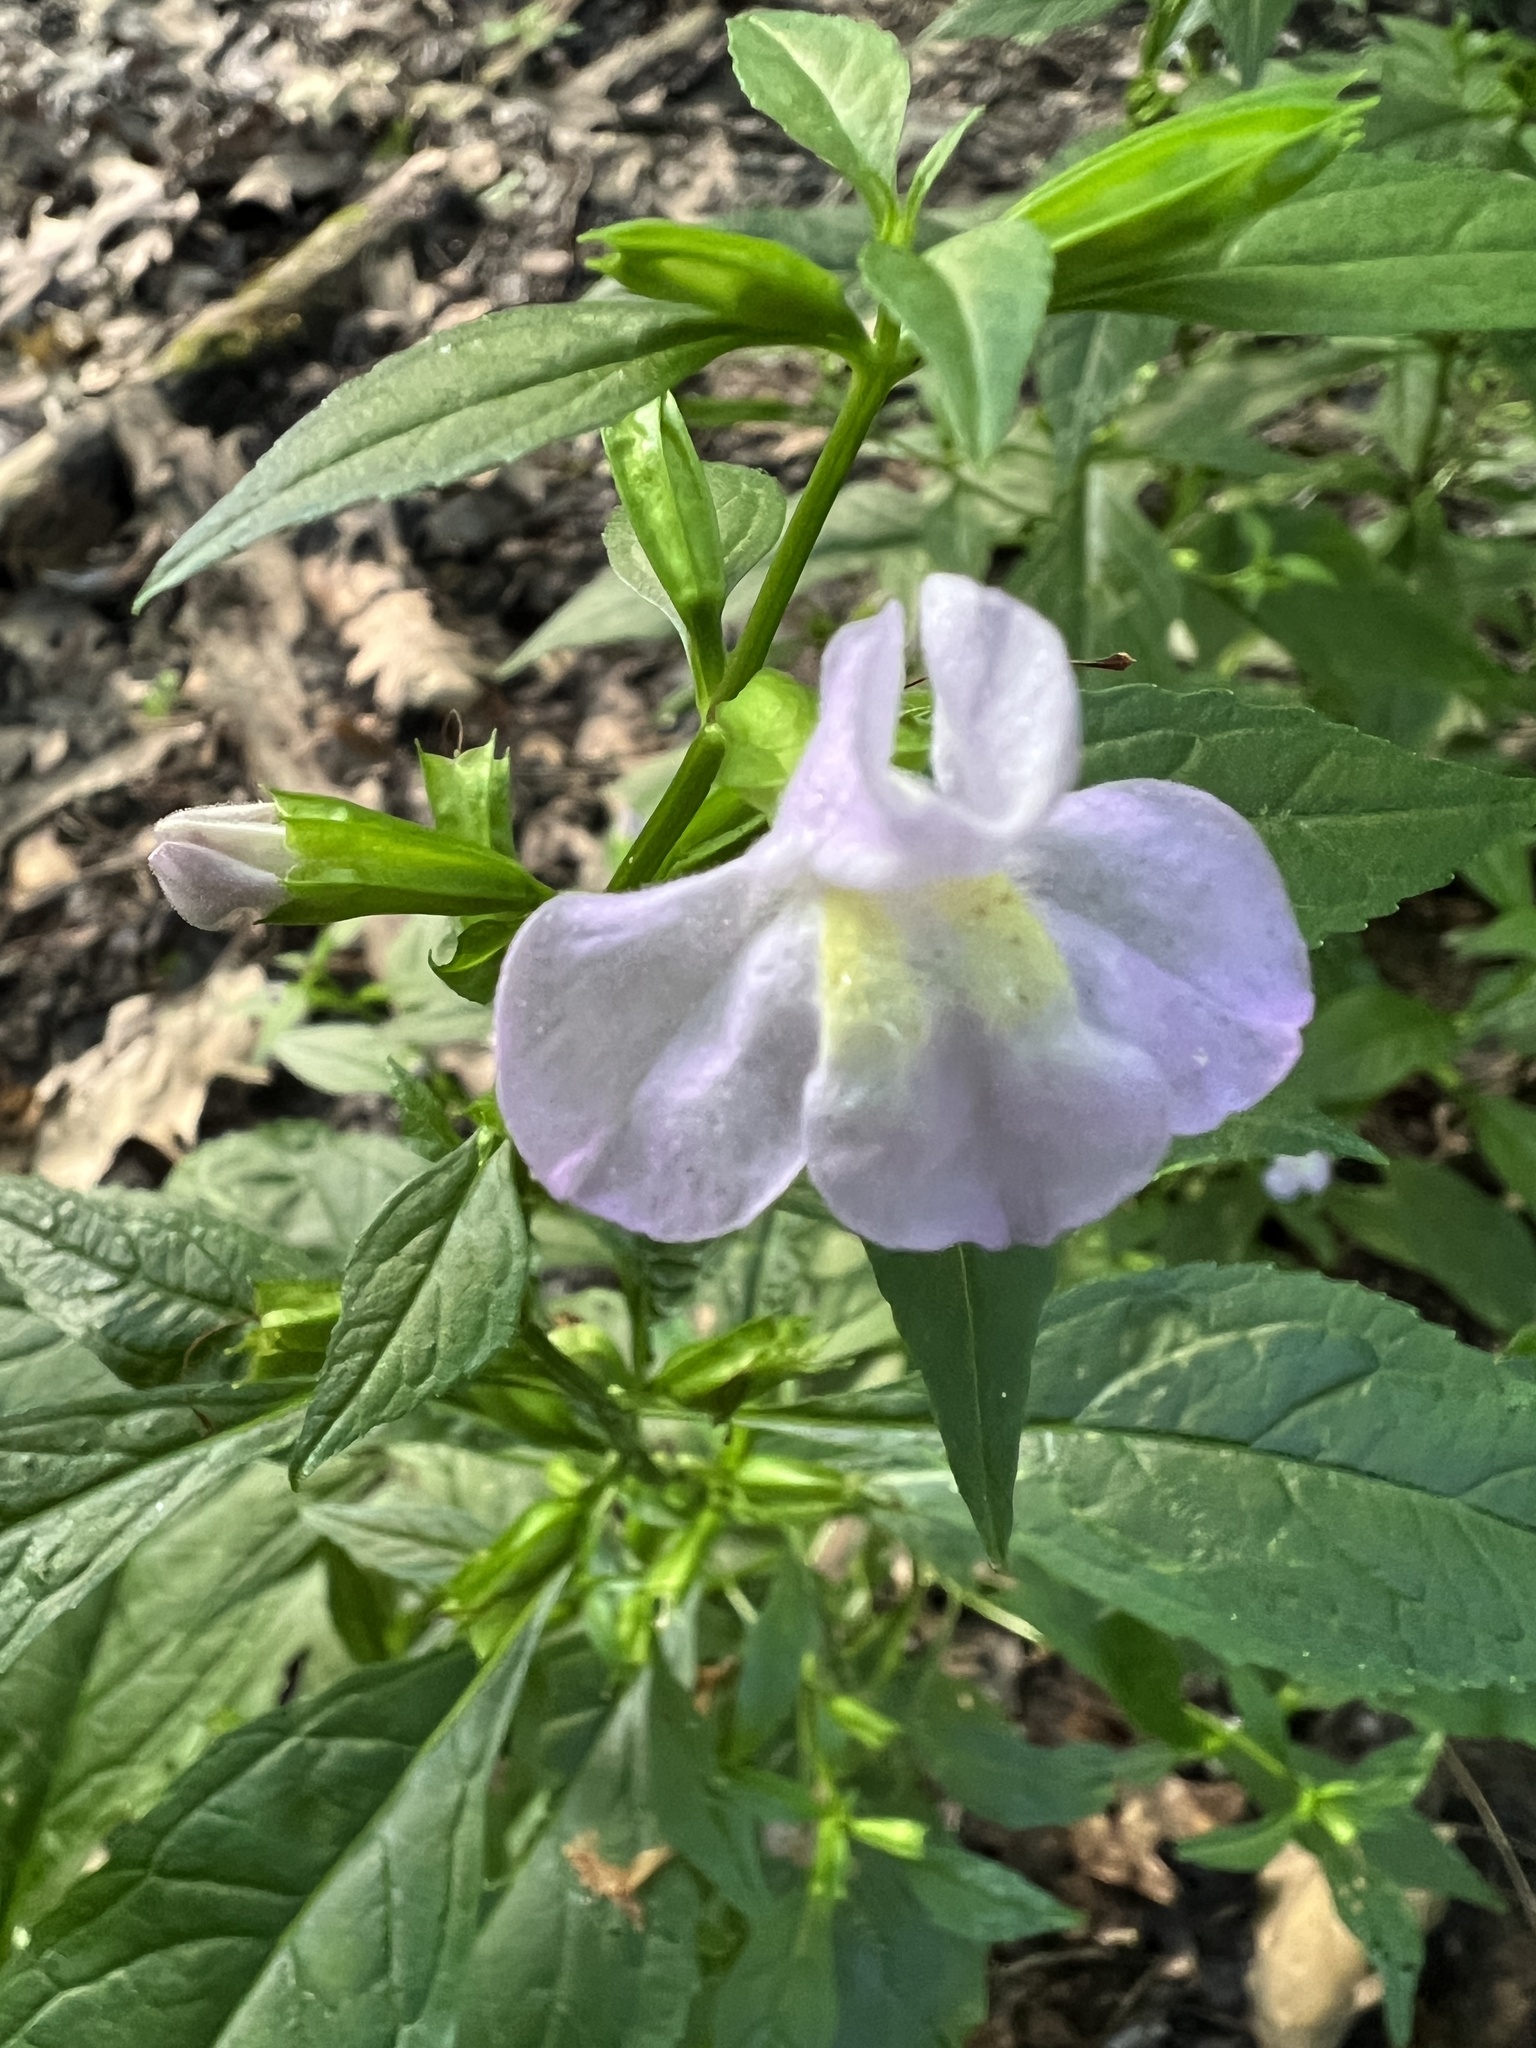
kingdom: Plantae
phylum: Tracheophyta
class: Magnoliopsida
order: Lamiales
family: Phrymaceae
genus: Mimulus
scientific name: Mimulus alatus
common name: Sharp-wing monkey-flower
